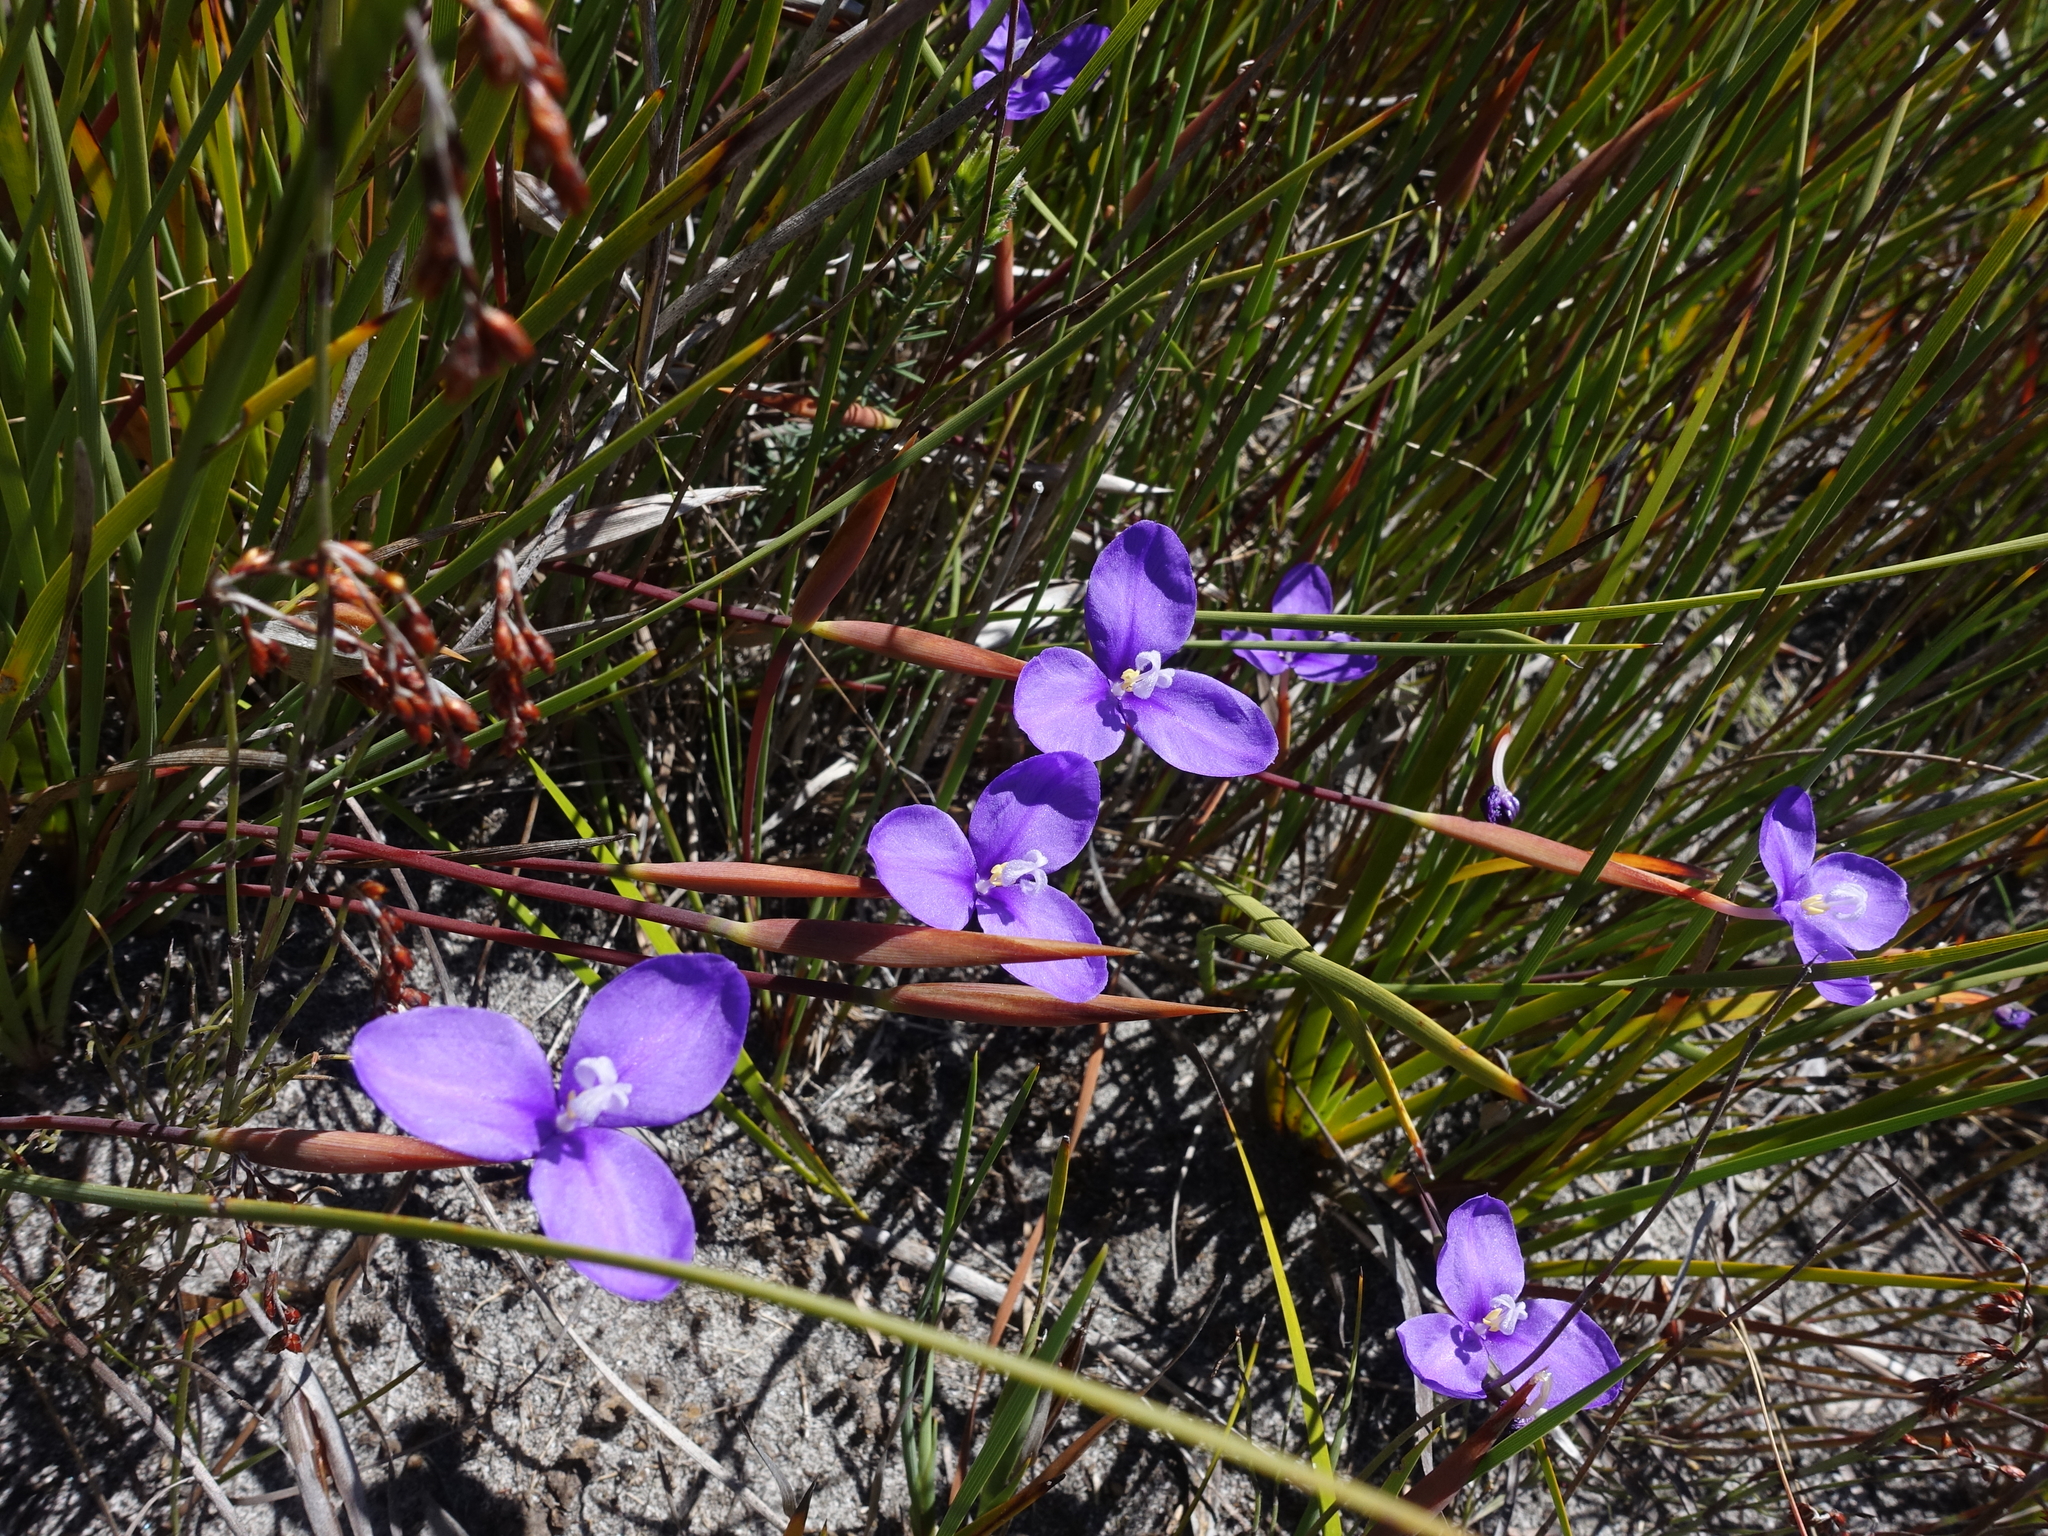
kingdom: Plantae
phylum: Tracheophyta
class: Liliopsida
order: Asparagales
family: Iridaceae
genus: Patersonia
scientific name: Patersonia occidentalis
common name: Long purple-flag
